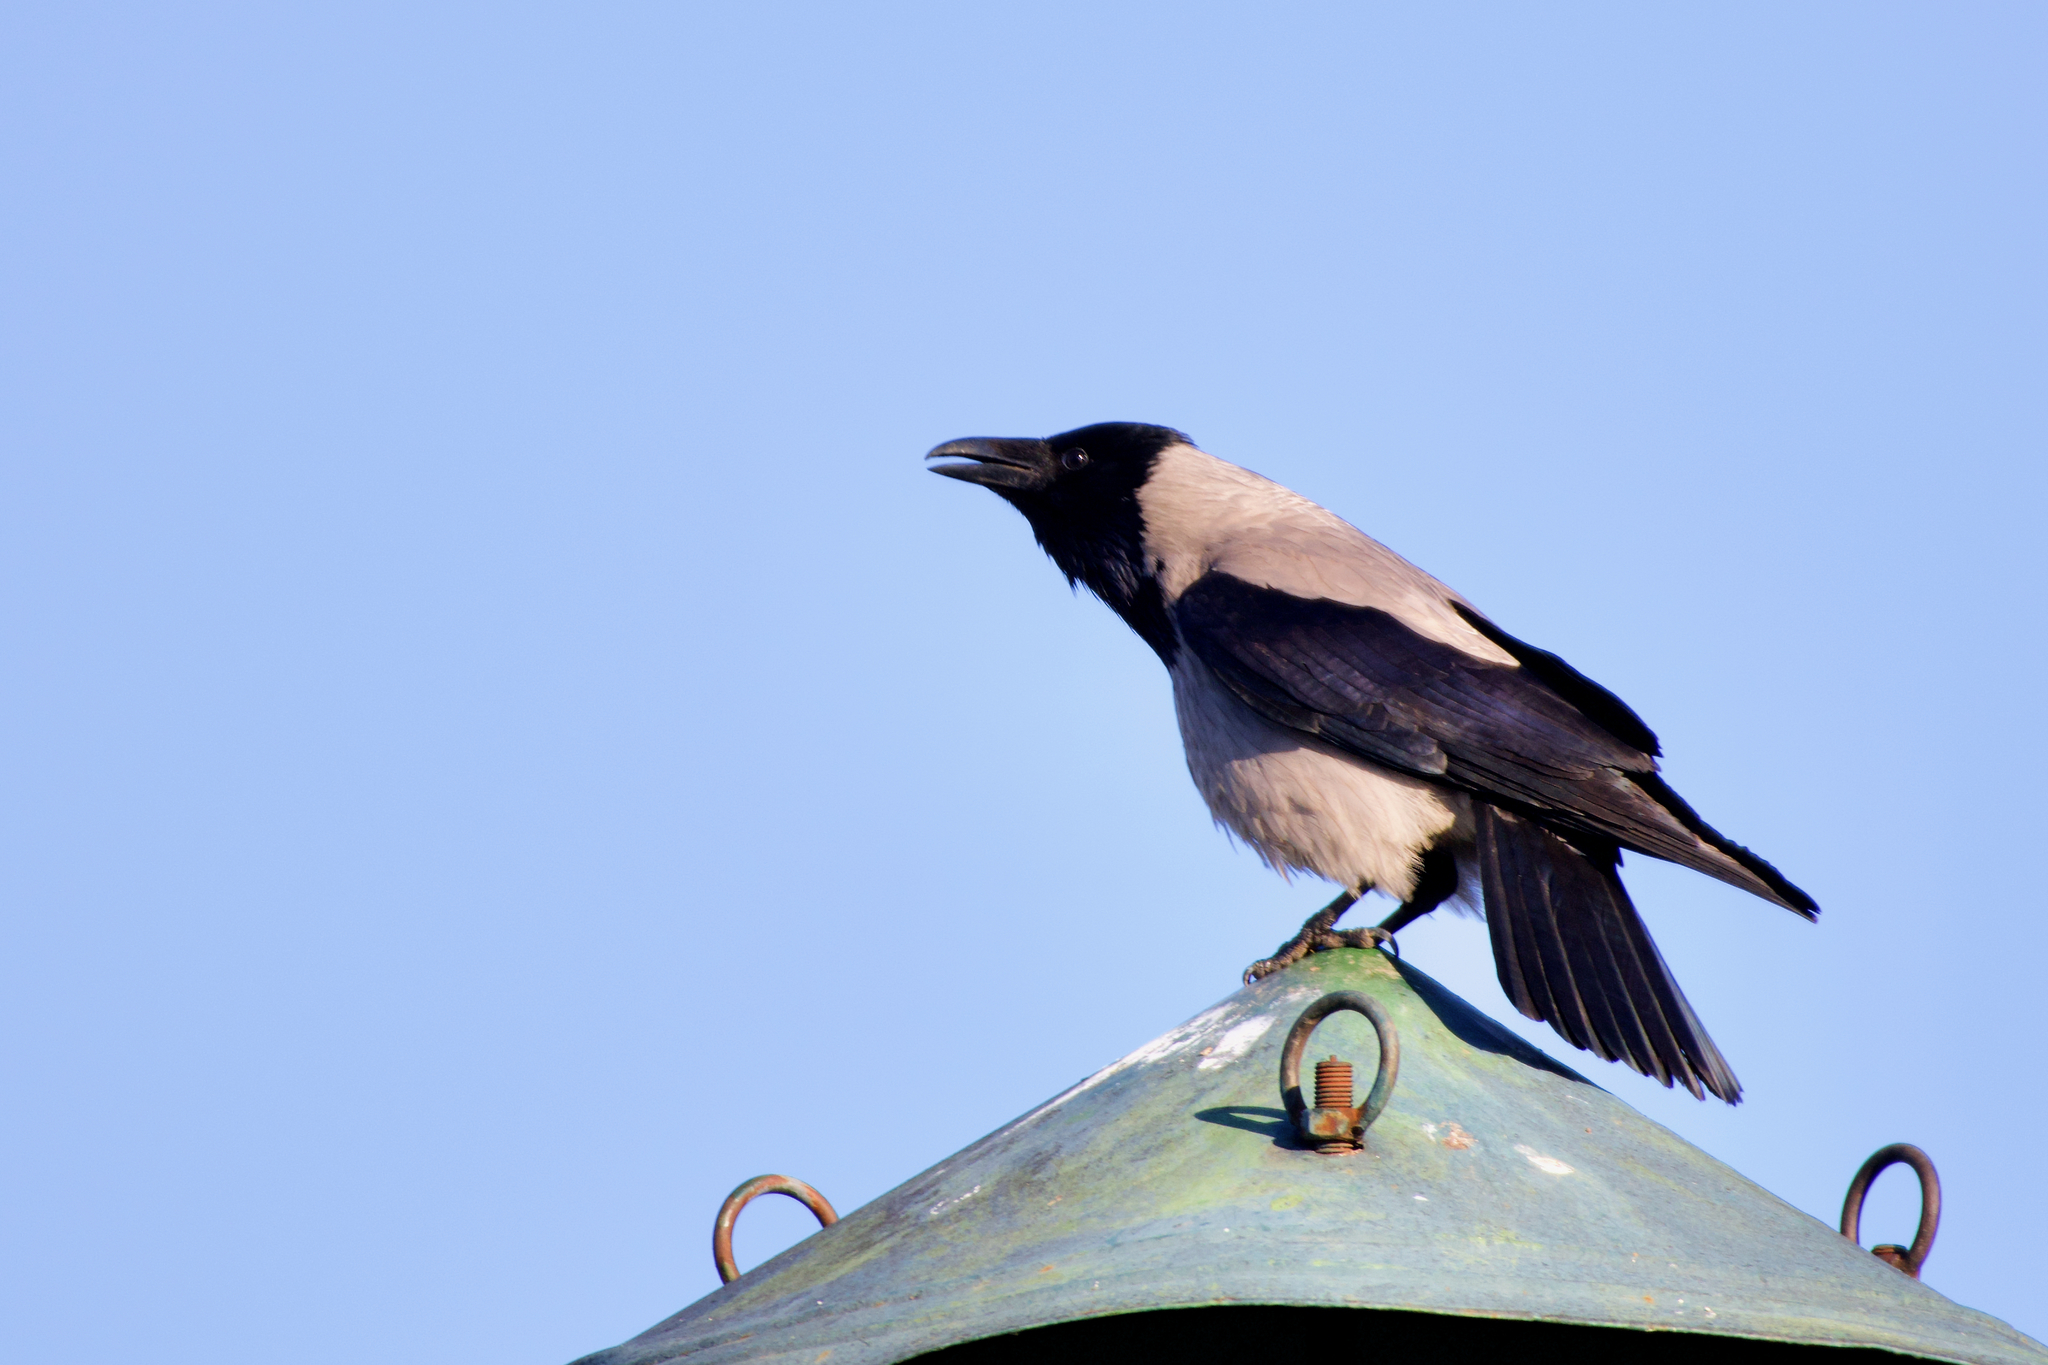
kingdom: Animalia
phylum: Chordata
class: Aves
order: Passeriformes
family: Corvidae
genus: Corvus
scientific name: Corvus cornix
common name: Hooded crow
